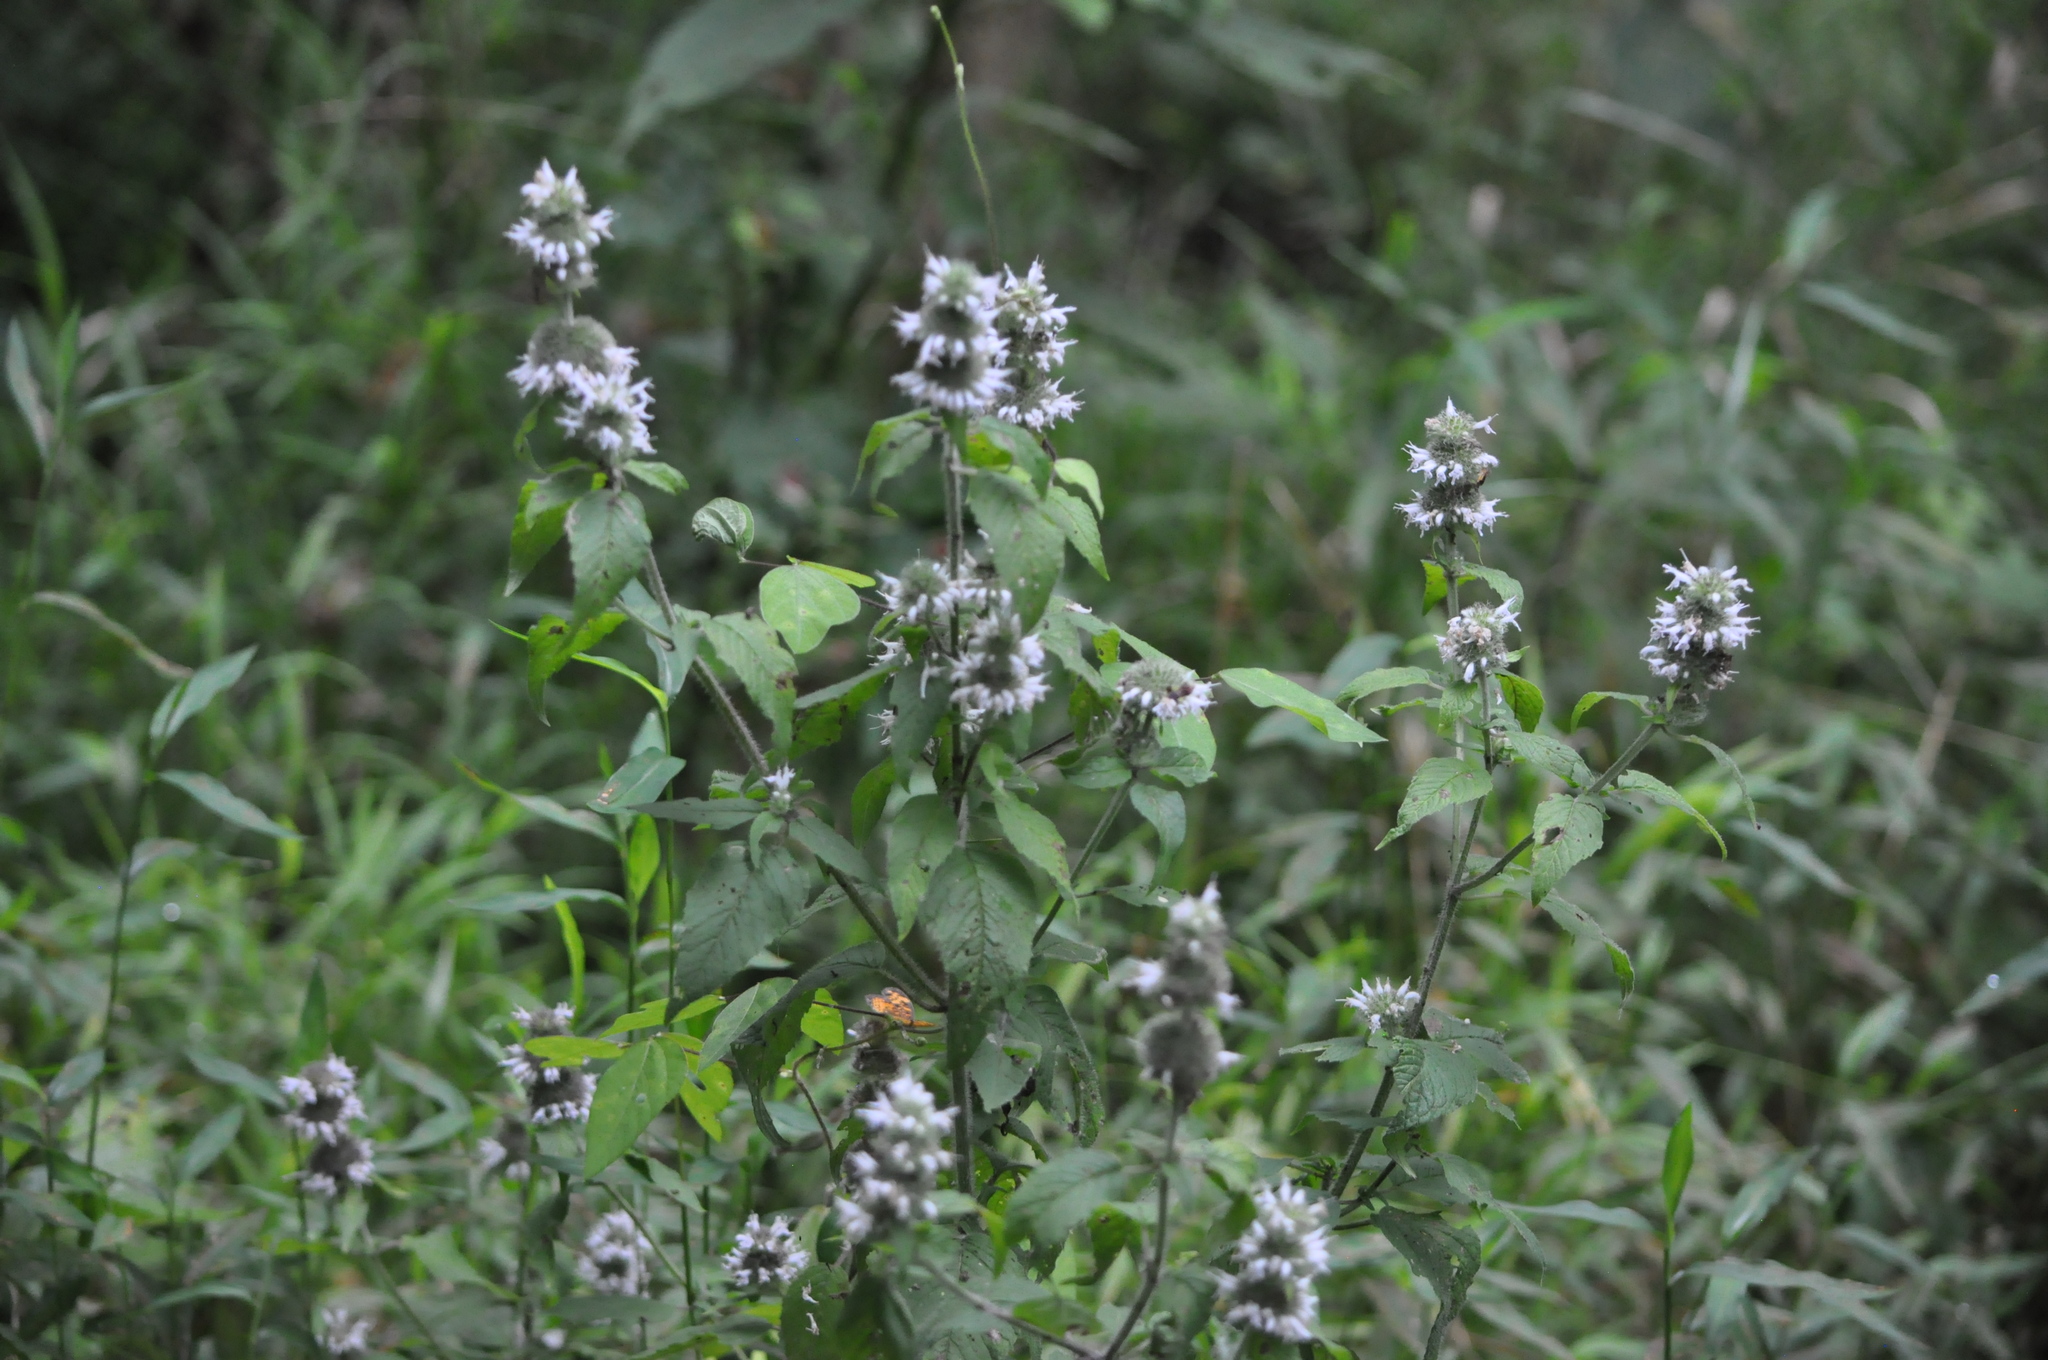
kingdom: Plantae
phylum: Tracheophyta
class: Magnoliopsida
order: Lamiales
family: Lamiaceae
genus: Blephilia
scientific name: Blephilia hirsuta
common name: Hairy blephilia
